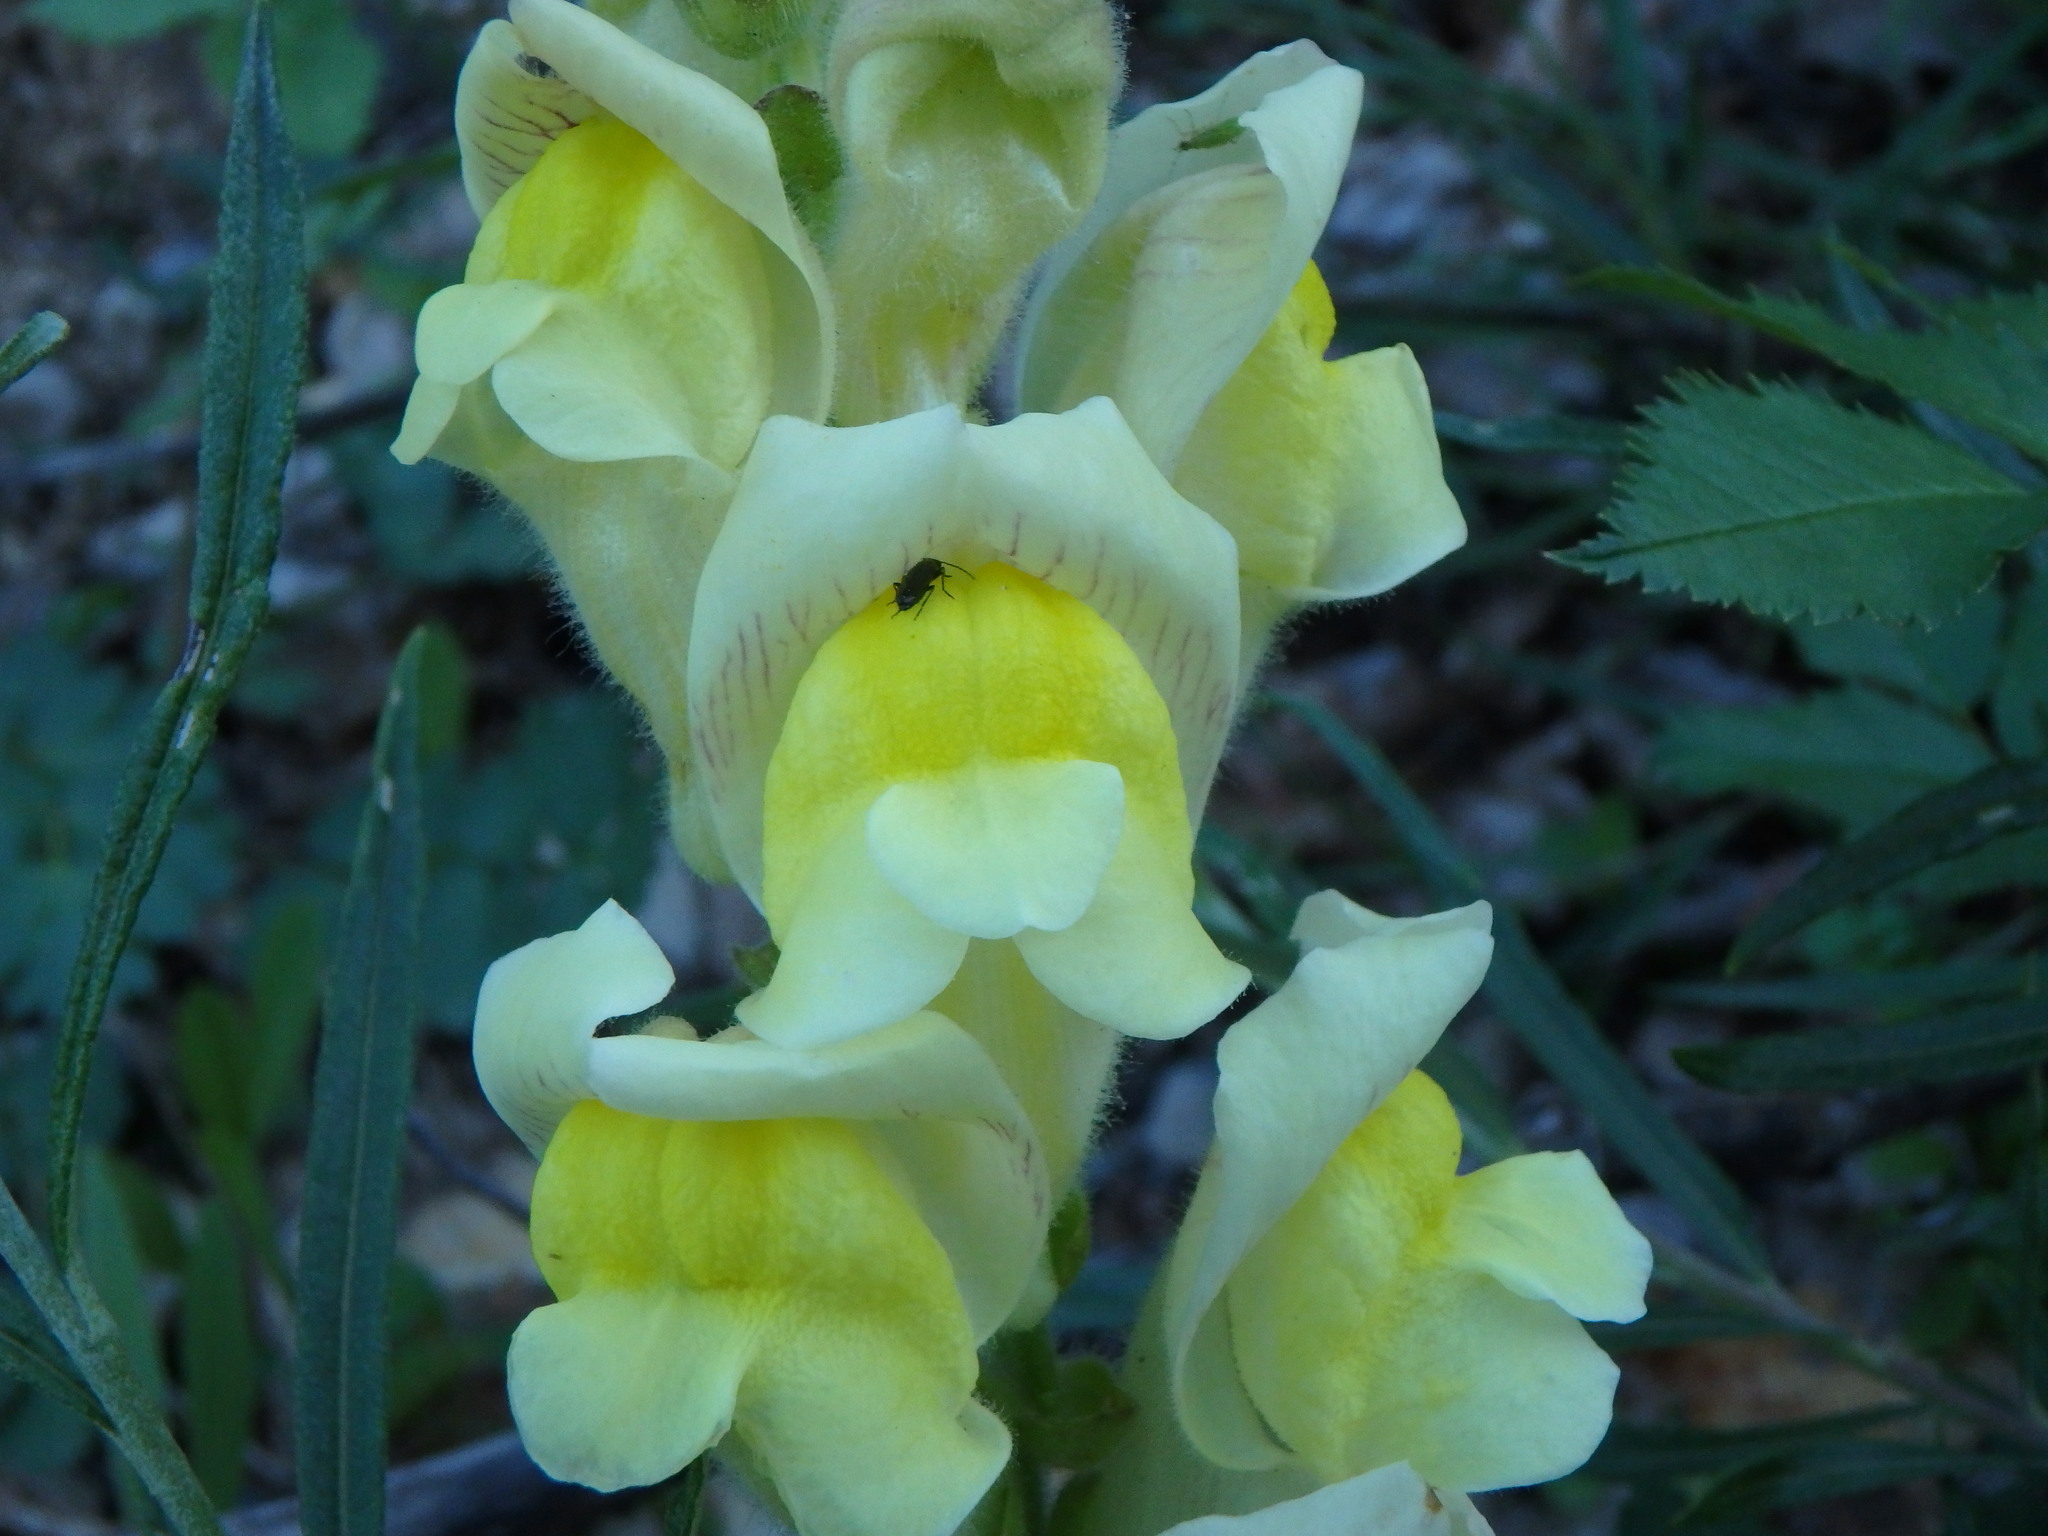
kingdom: Plantae
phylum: Tracheophyta
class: Magnoliopsida
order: Lamiales
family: Plantaginaceae
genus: Antirrhinum
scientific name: Antirrhinum latifolium
